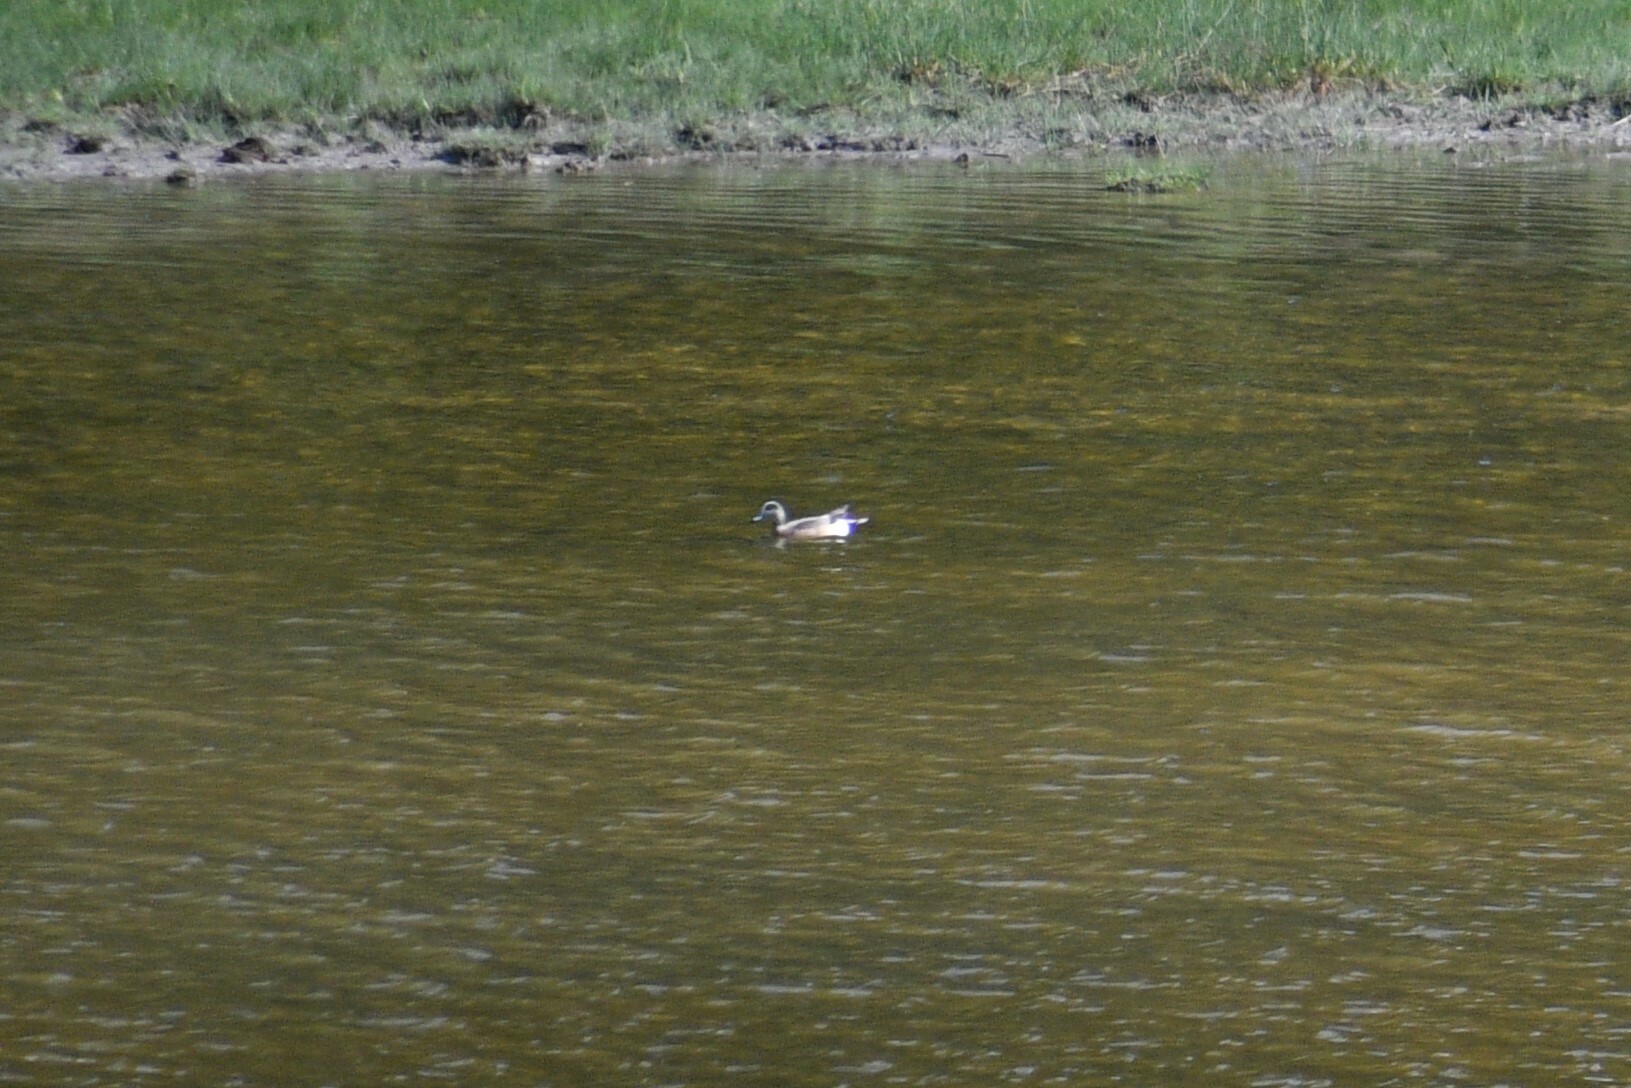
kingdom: Animalia
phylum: Chordata
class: Aves
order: Anseriformes
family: Anatidae
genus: Mareca
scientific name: Mareca americana
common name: American wigeon
